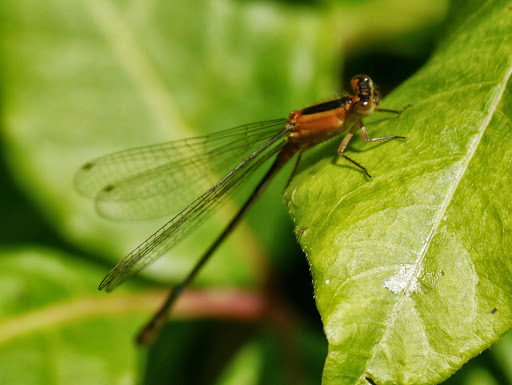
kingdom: Animalia
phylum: Arthropoda
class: Insecta
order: Odonata
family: Coenagrionidae
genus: Ischnura
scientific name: Ischnura ramburii
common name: Rambur's forktail
